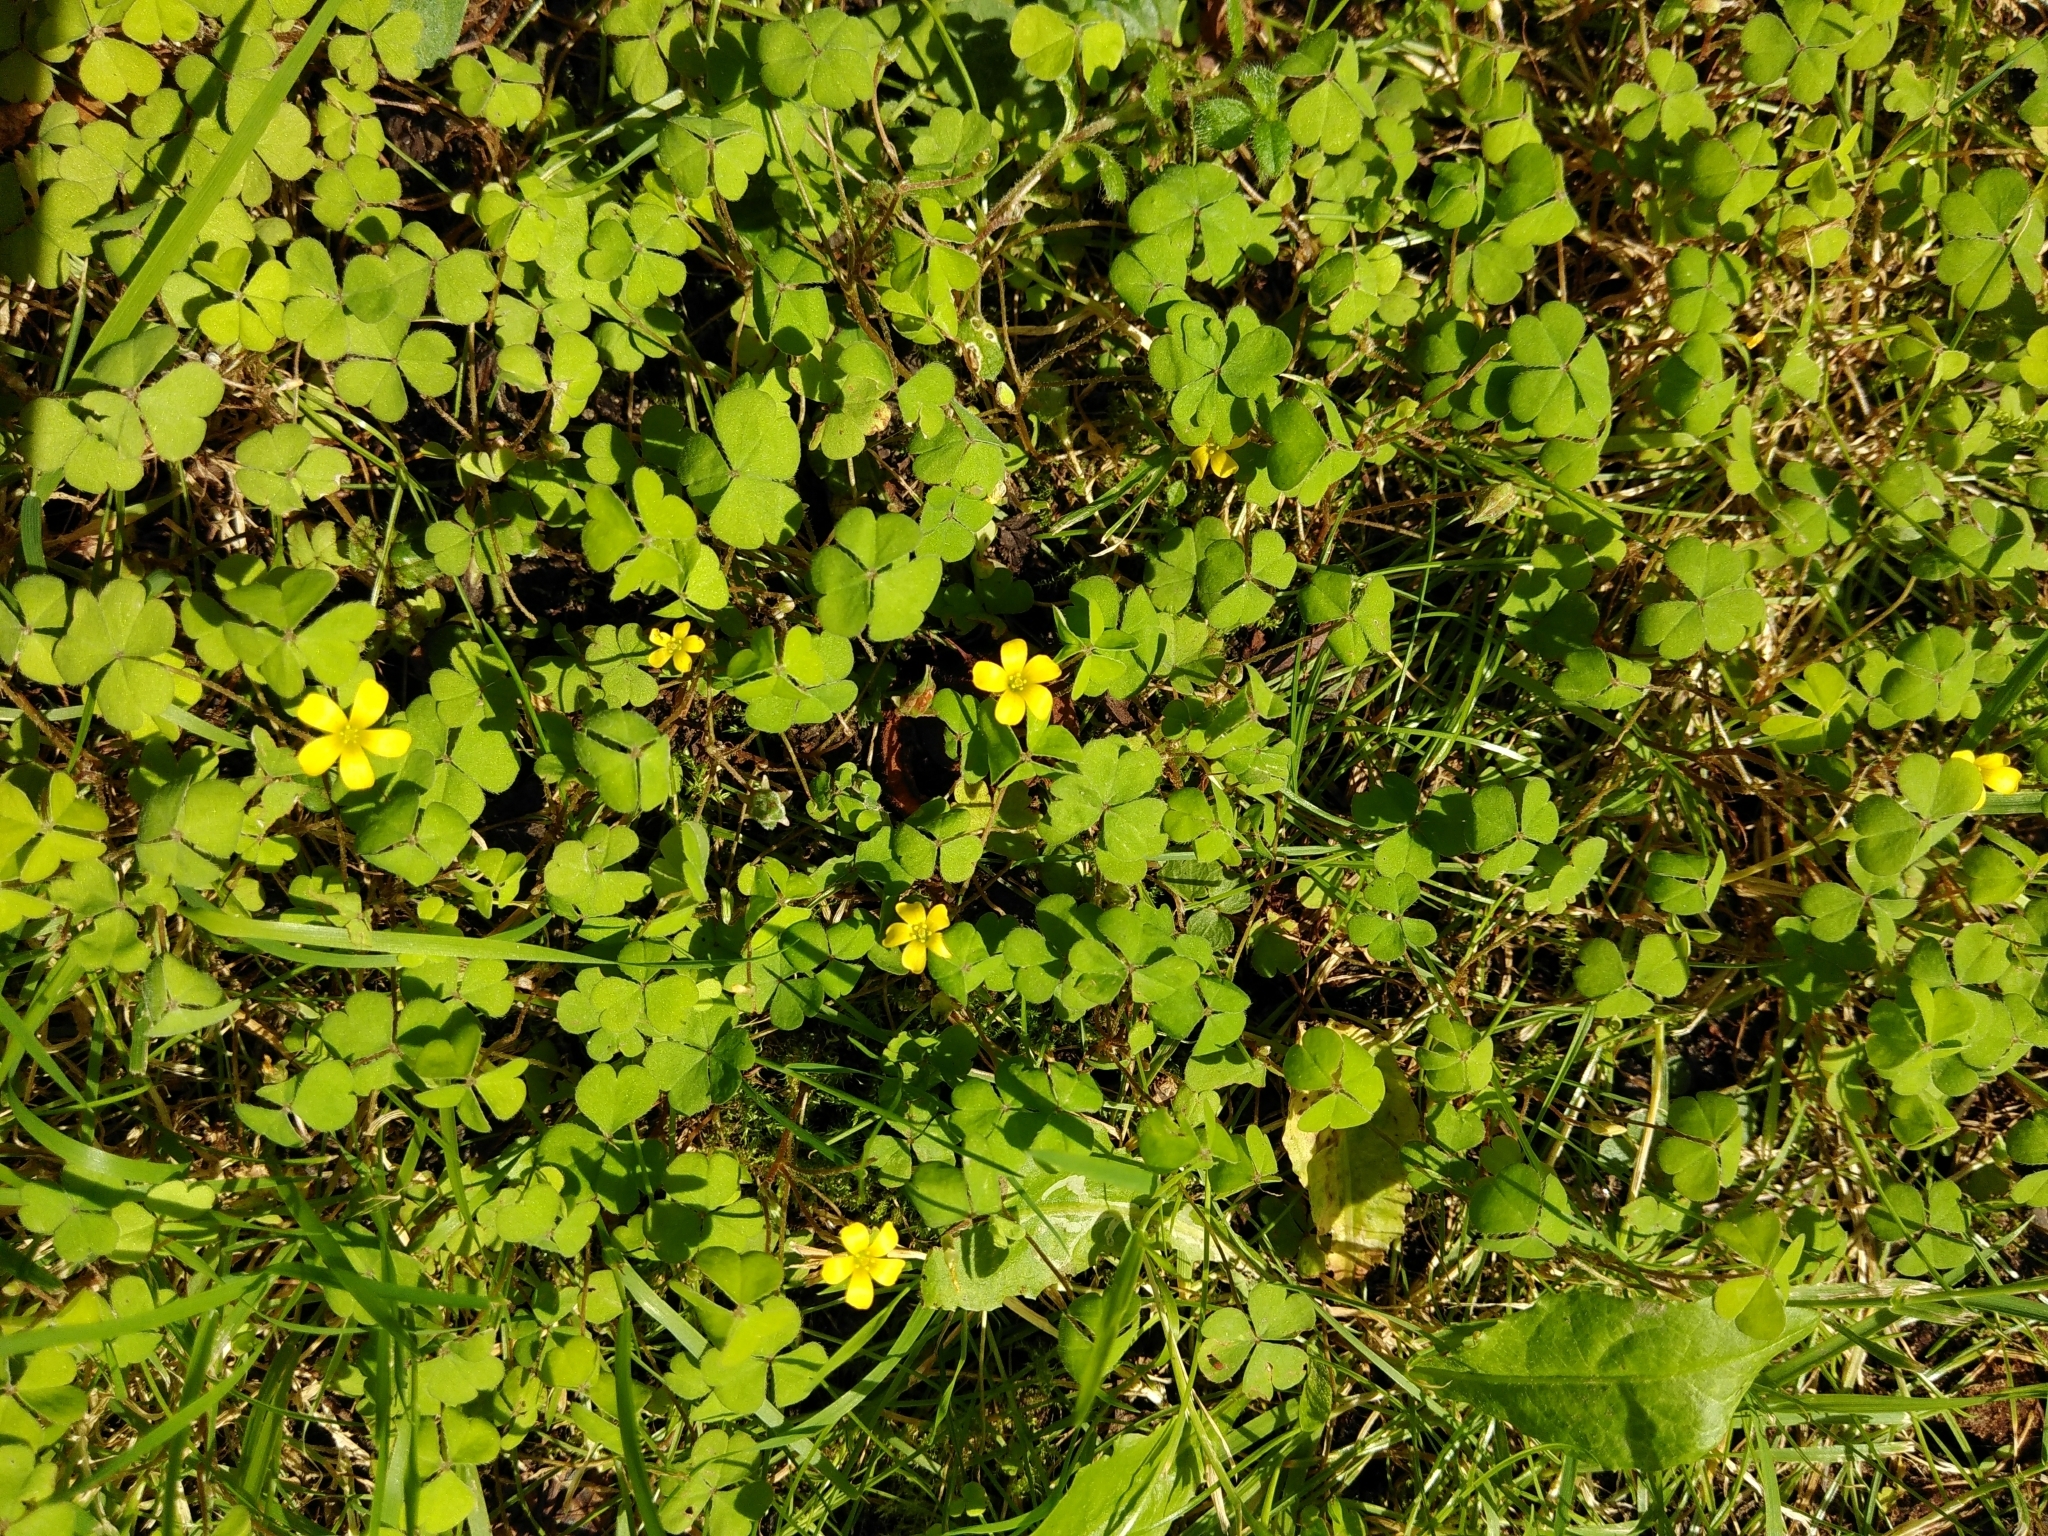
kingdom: Plantae
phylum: Tracheophyta
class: Magnoliopsida
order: Oxalidales
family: Oxalidaceae
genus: Oxalis
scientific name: Oxalis exilis
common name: Least yellow-sorrel
